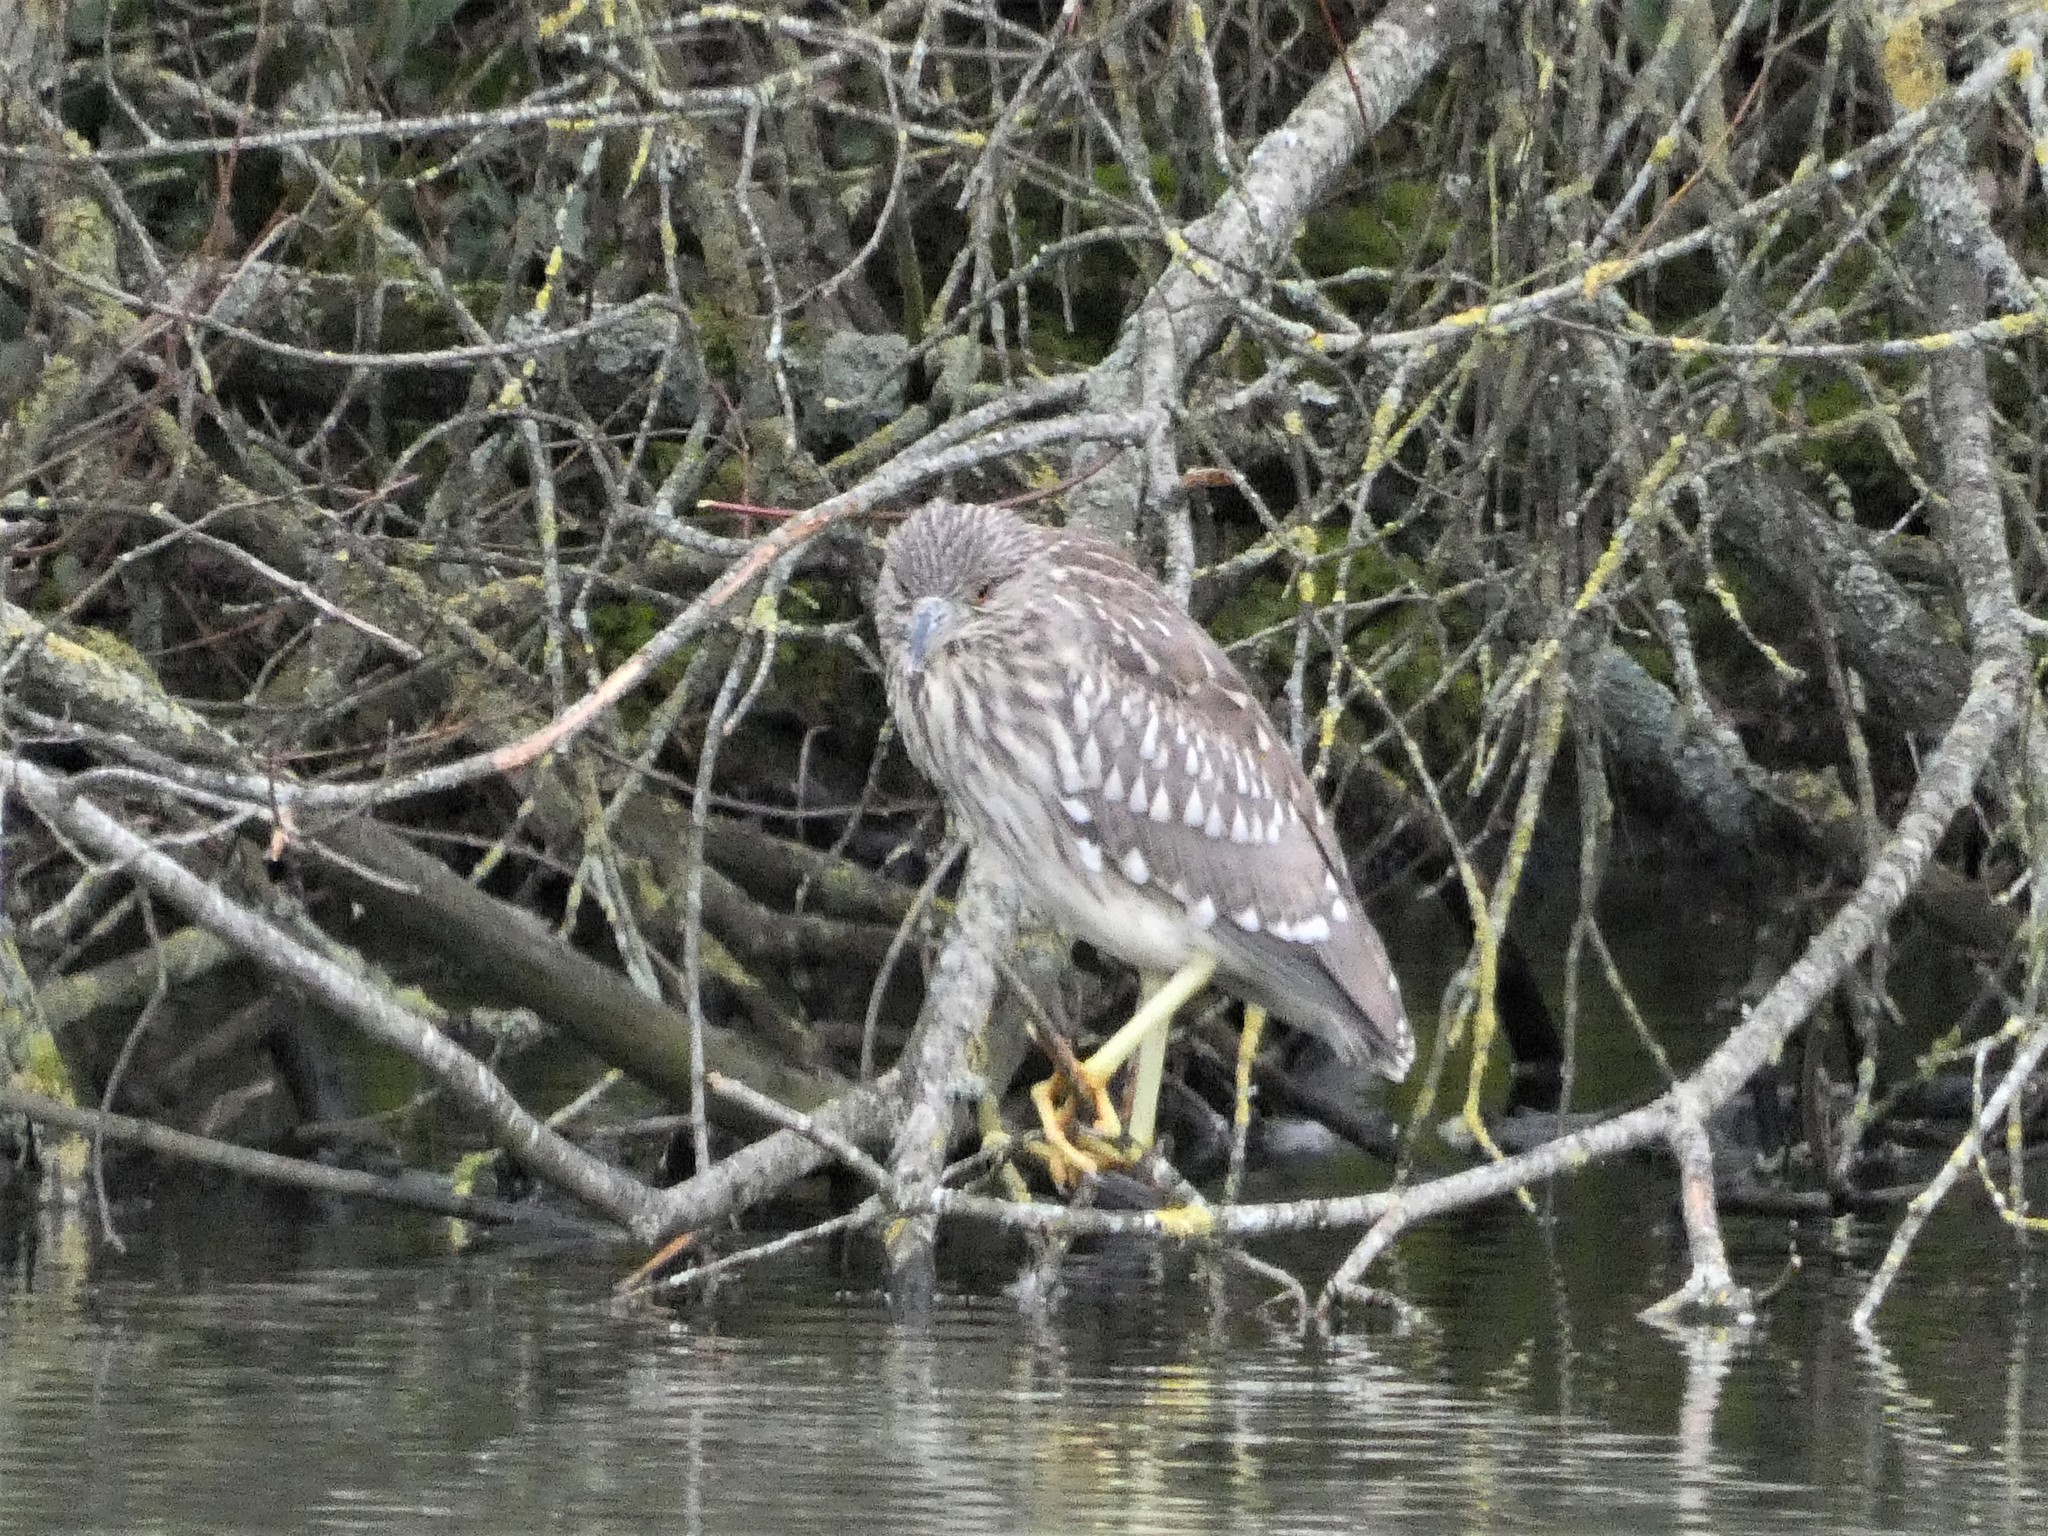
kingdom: Animalia
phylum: Chordata
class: Aves
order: Pelecaniformes
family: Ardeidae
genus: Nycticorax
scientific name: Nycticorax nycticorax
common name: Black-crowned night heron
